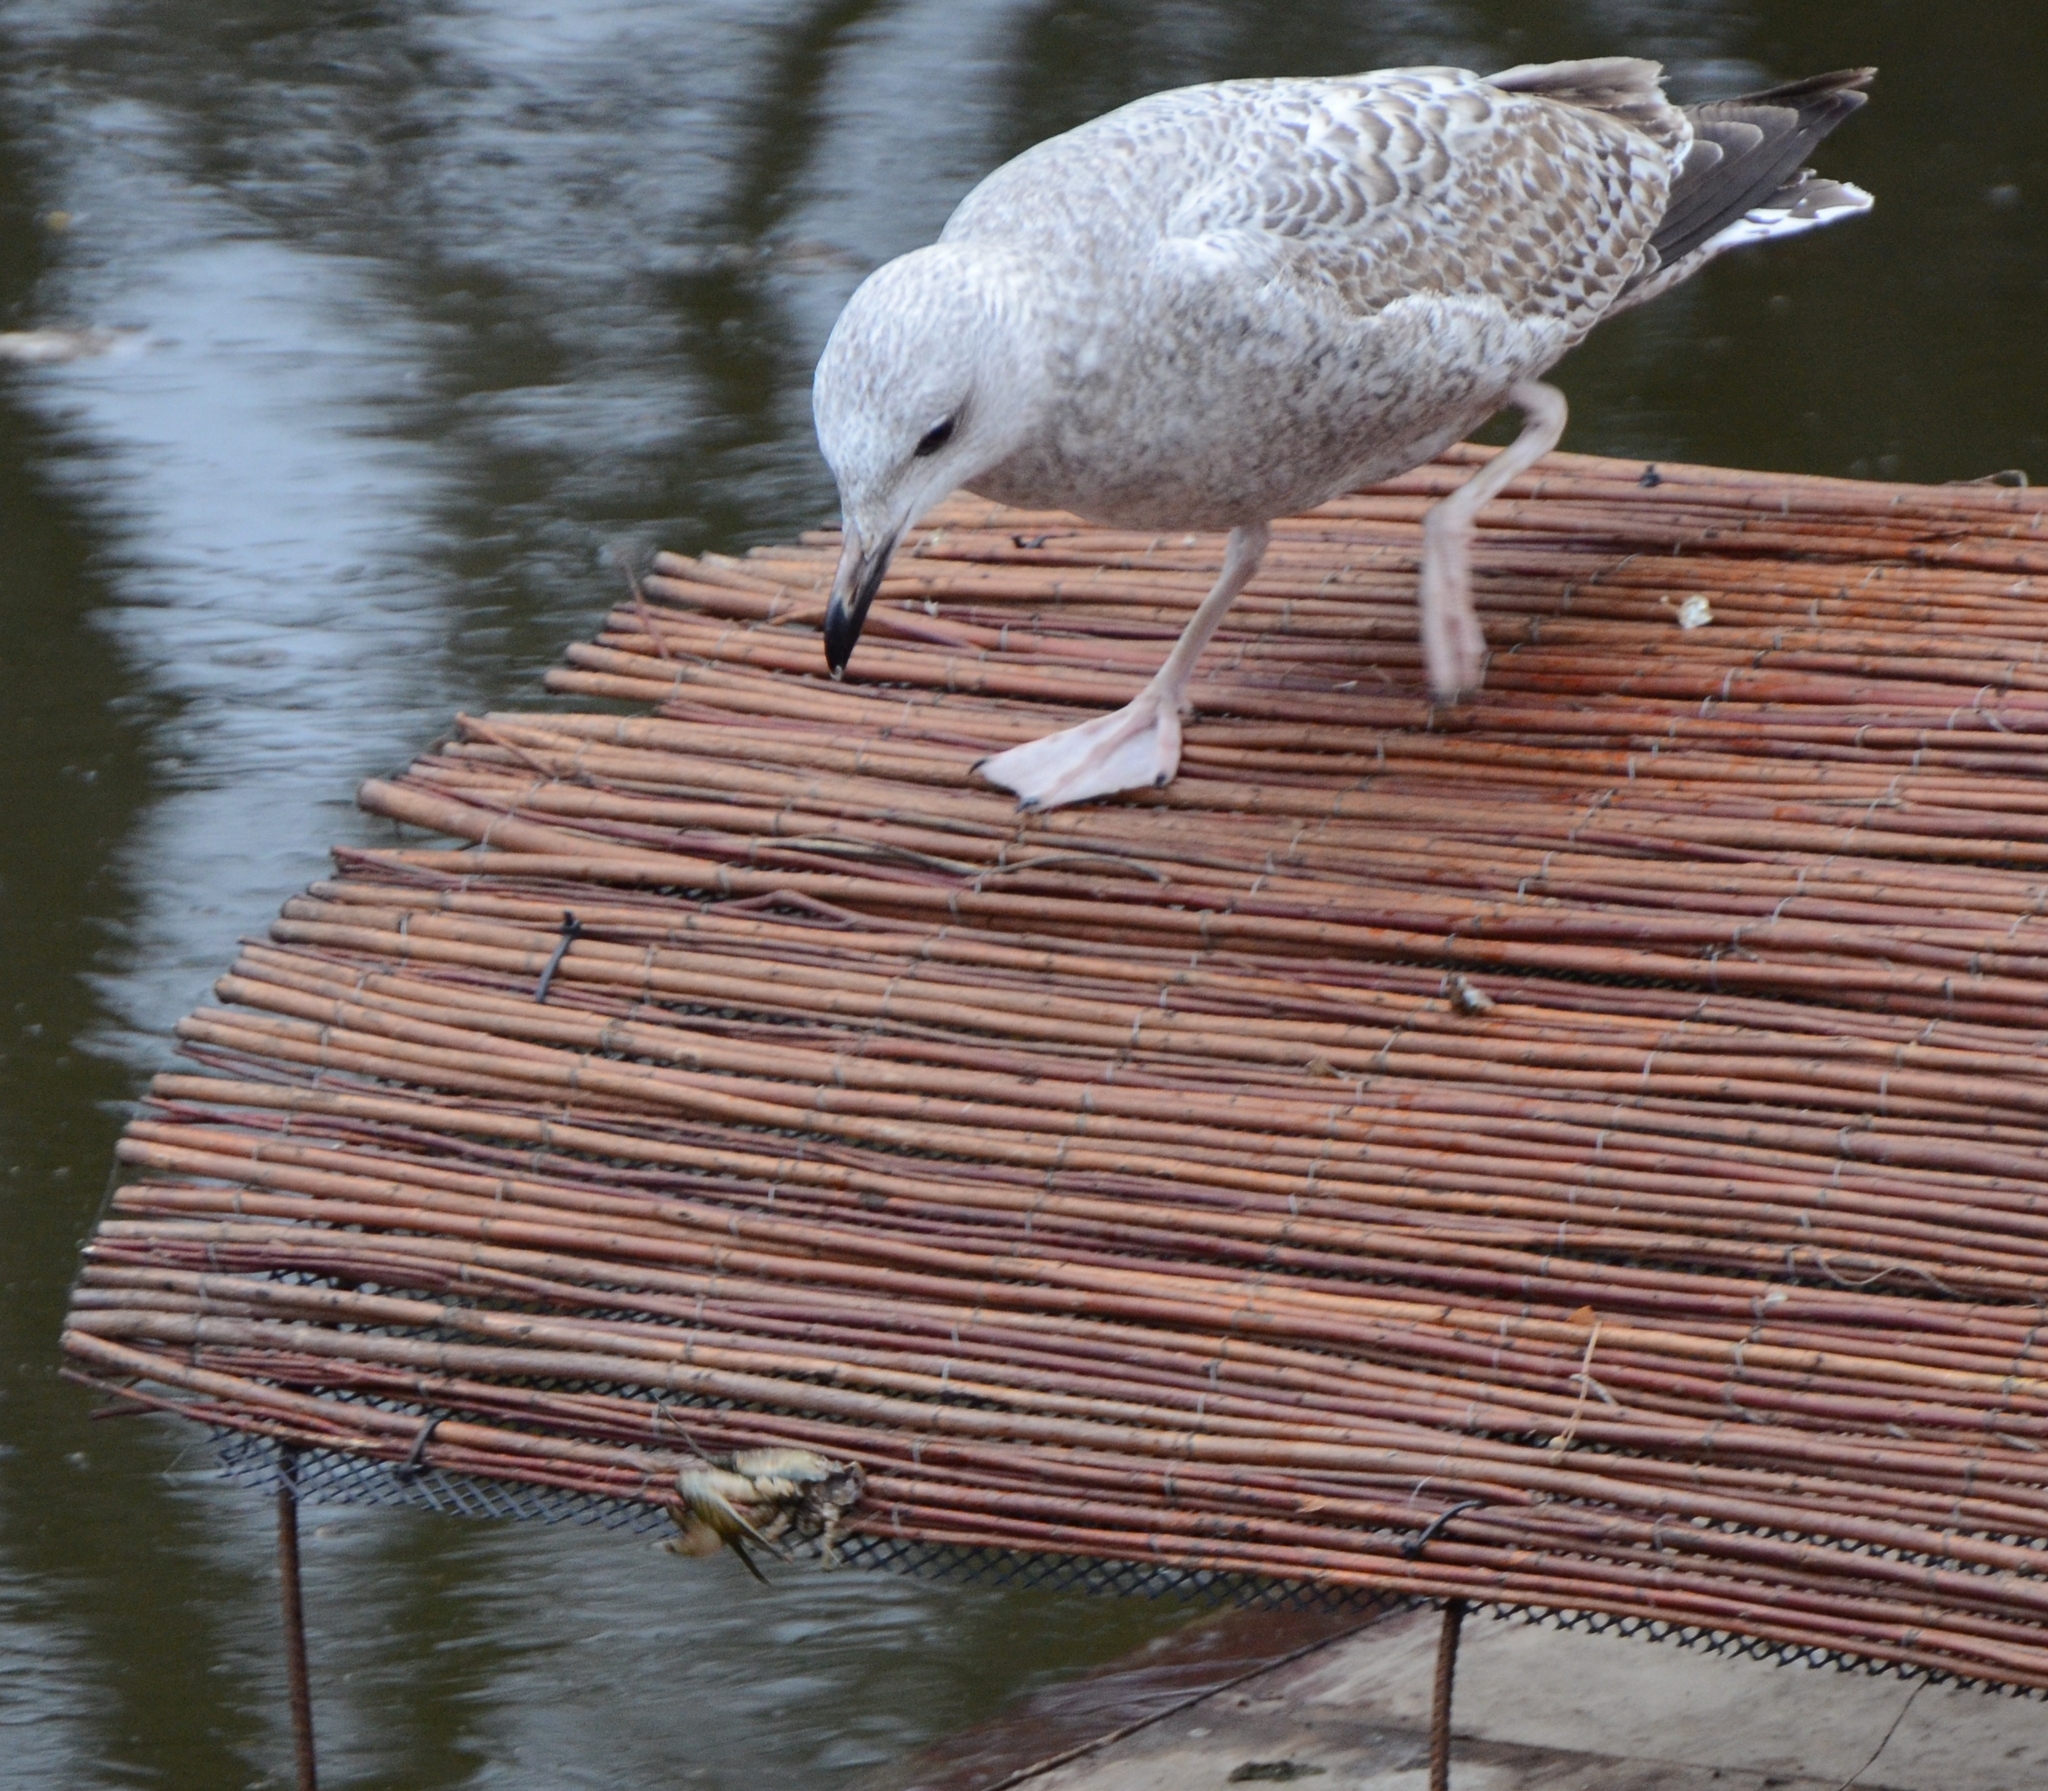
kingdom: Animalia
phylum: Chordata
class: Aves
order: Charadriiformes
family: Laridae
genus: Larus
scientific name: Larus argentatus
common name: Herring gull
